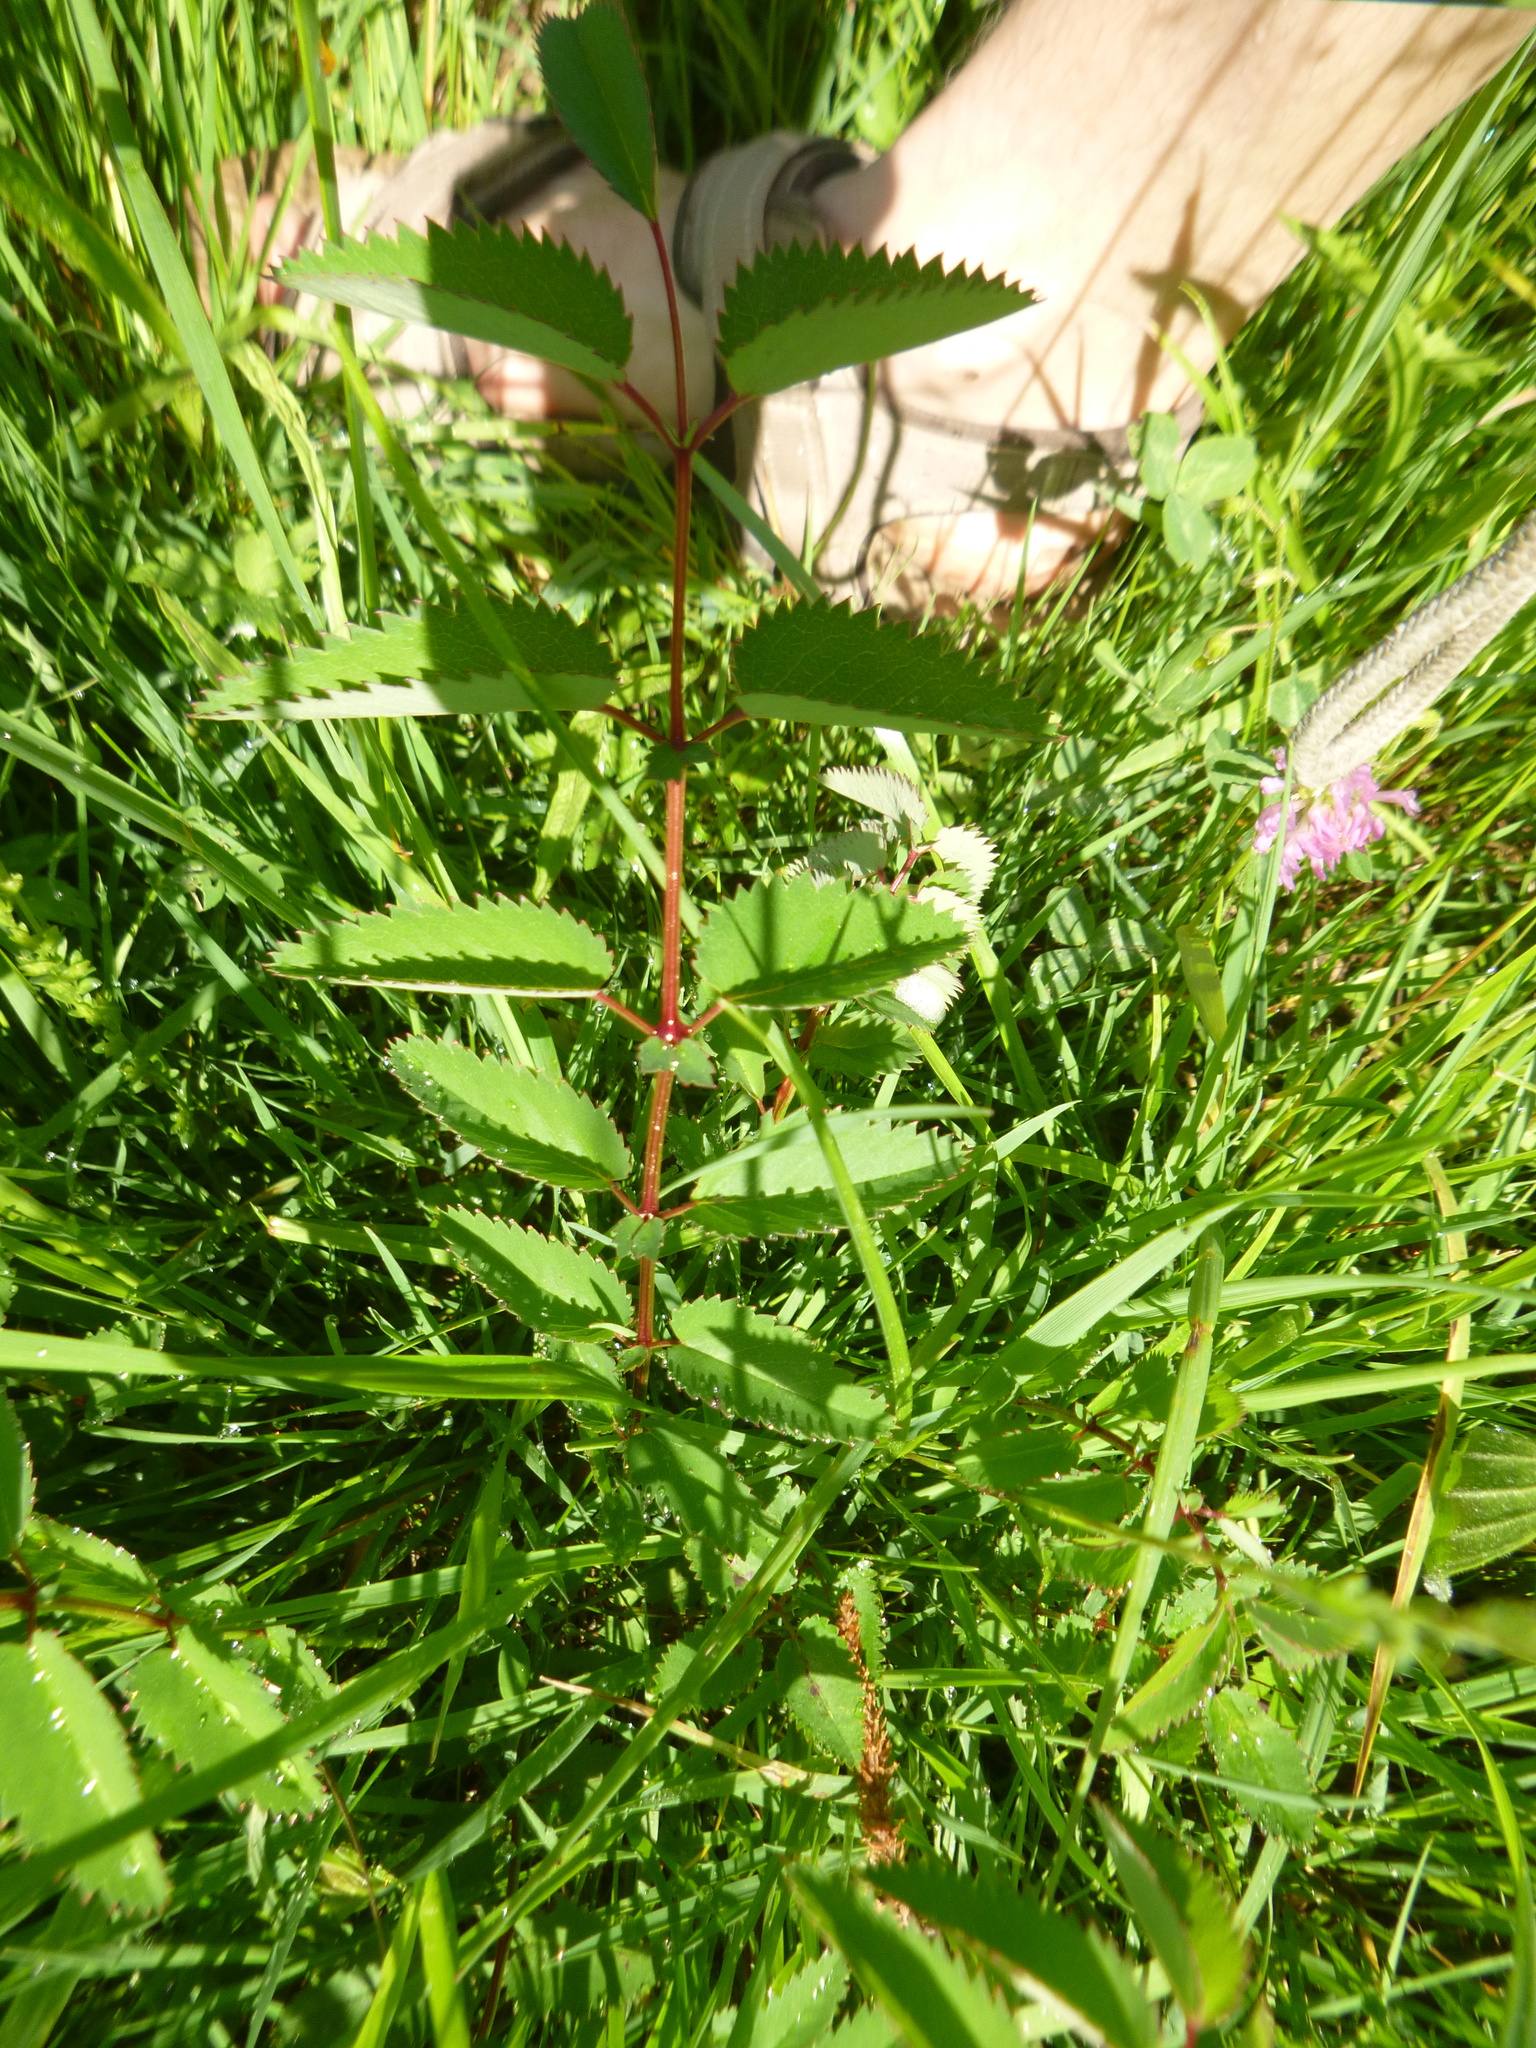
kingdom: Plantae
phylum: Tracheophyta
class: Magnoliopsida
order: Rosales
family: Rosaceae
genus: Sanguisorba
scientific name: Sanguisorba officinalis
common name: Great burnet
